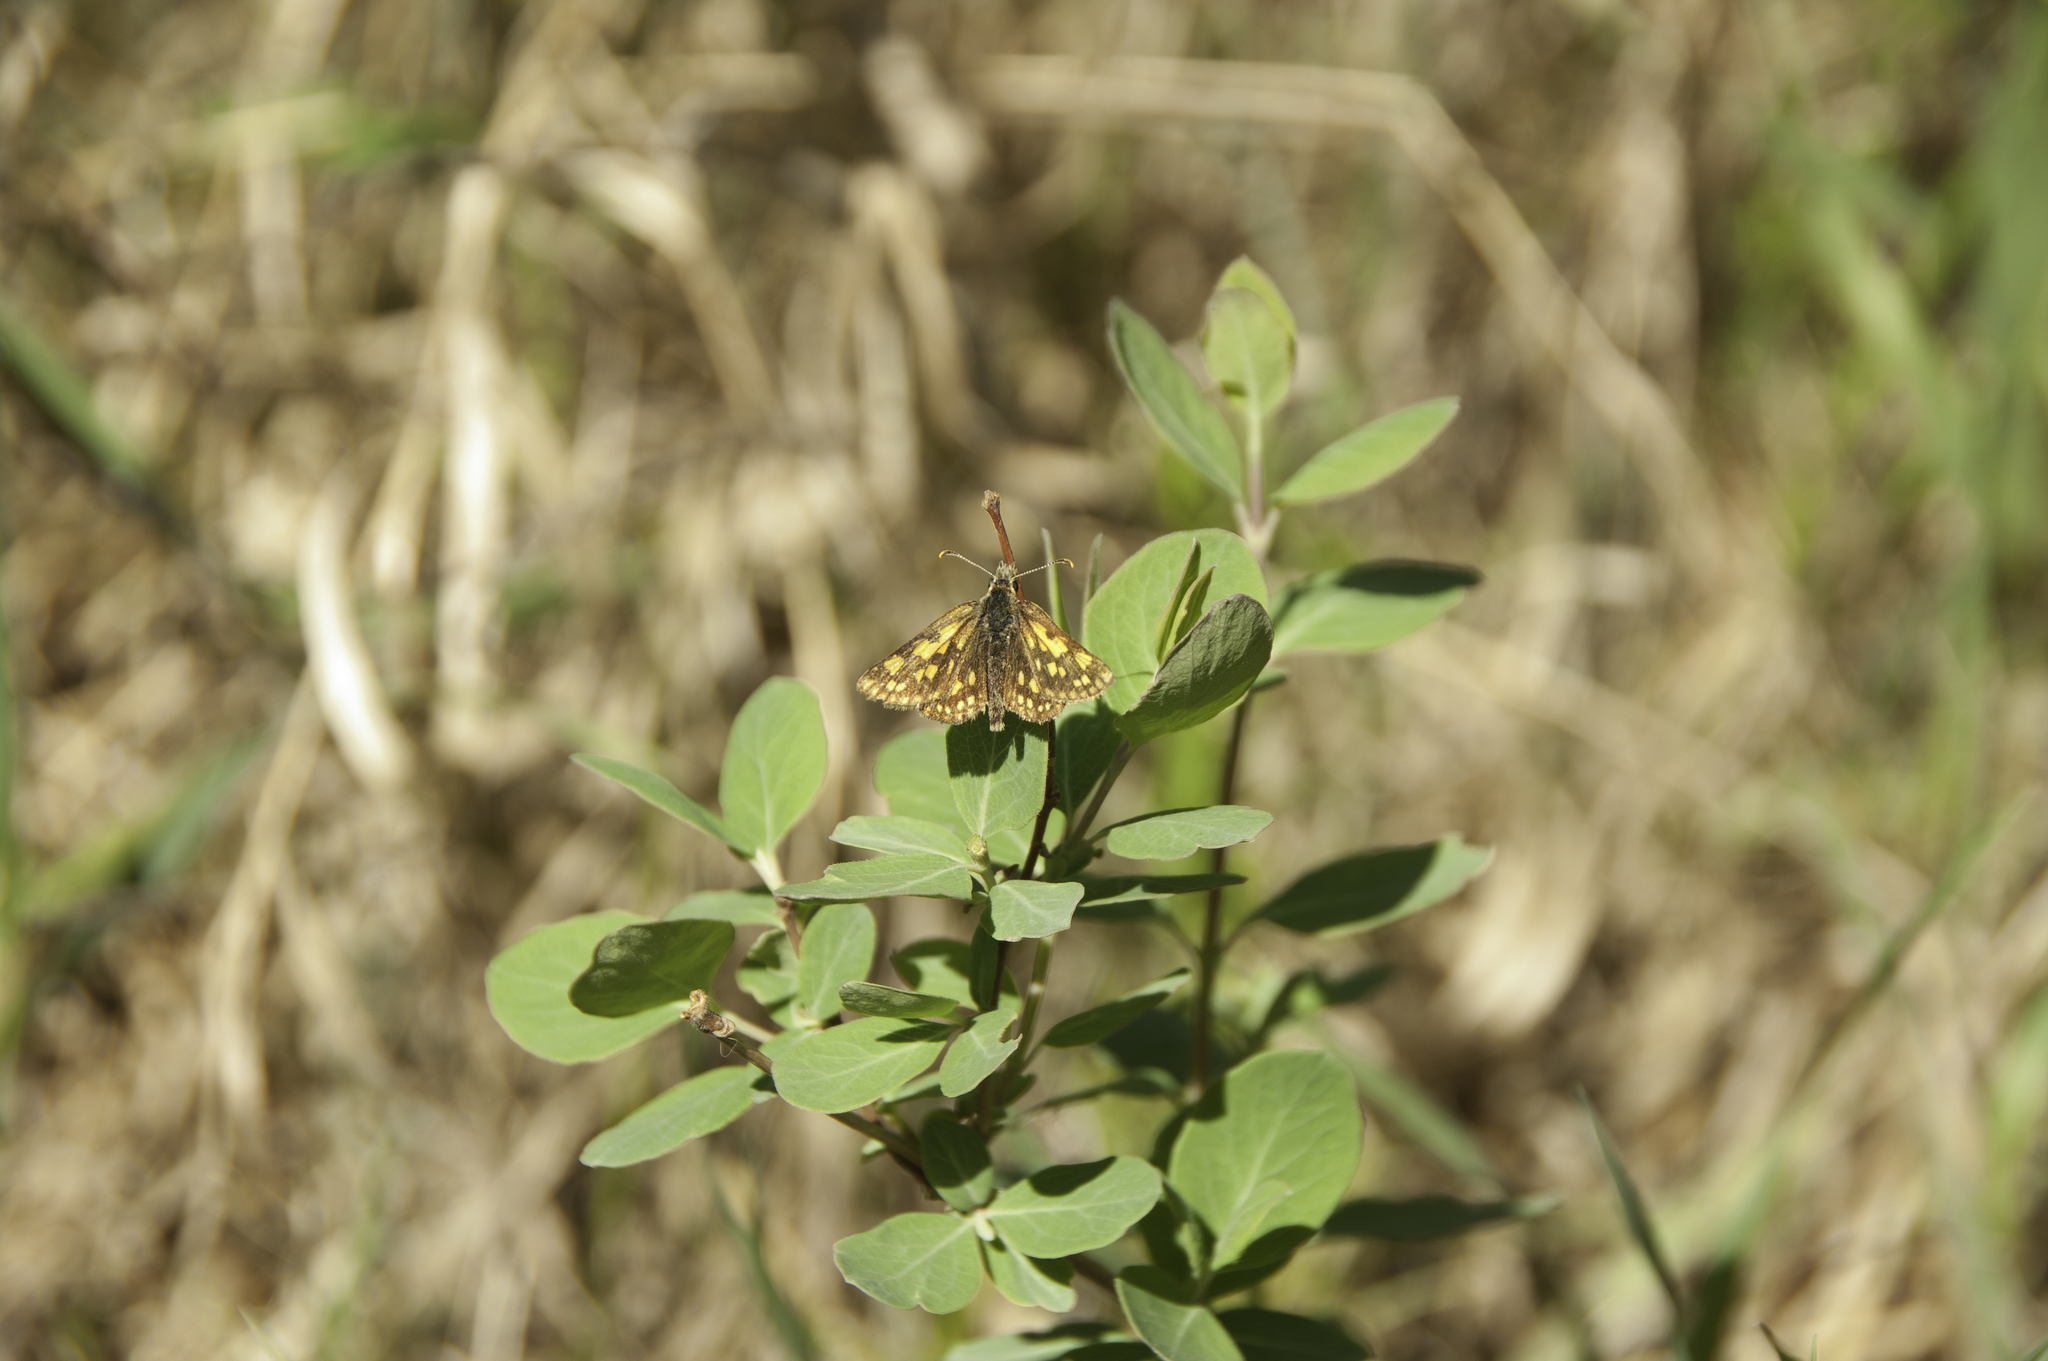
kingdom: Animalia
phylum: Arthropoda
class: Insecta
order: Lepidoptera
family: Hesperiidae
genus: Carterocephalus
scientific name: Carterocephalus mandan
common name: Arctic skipperling
